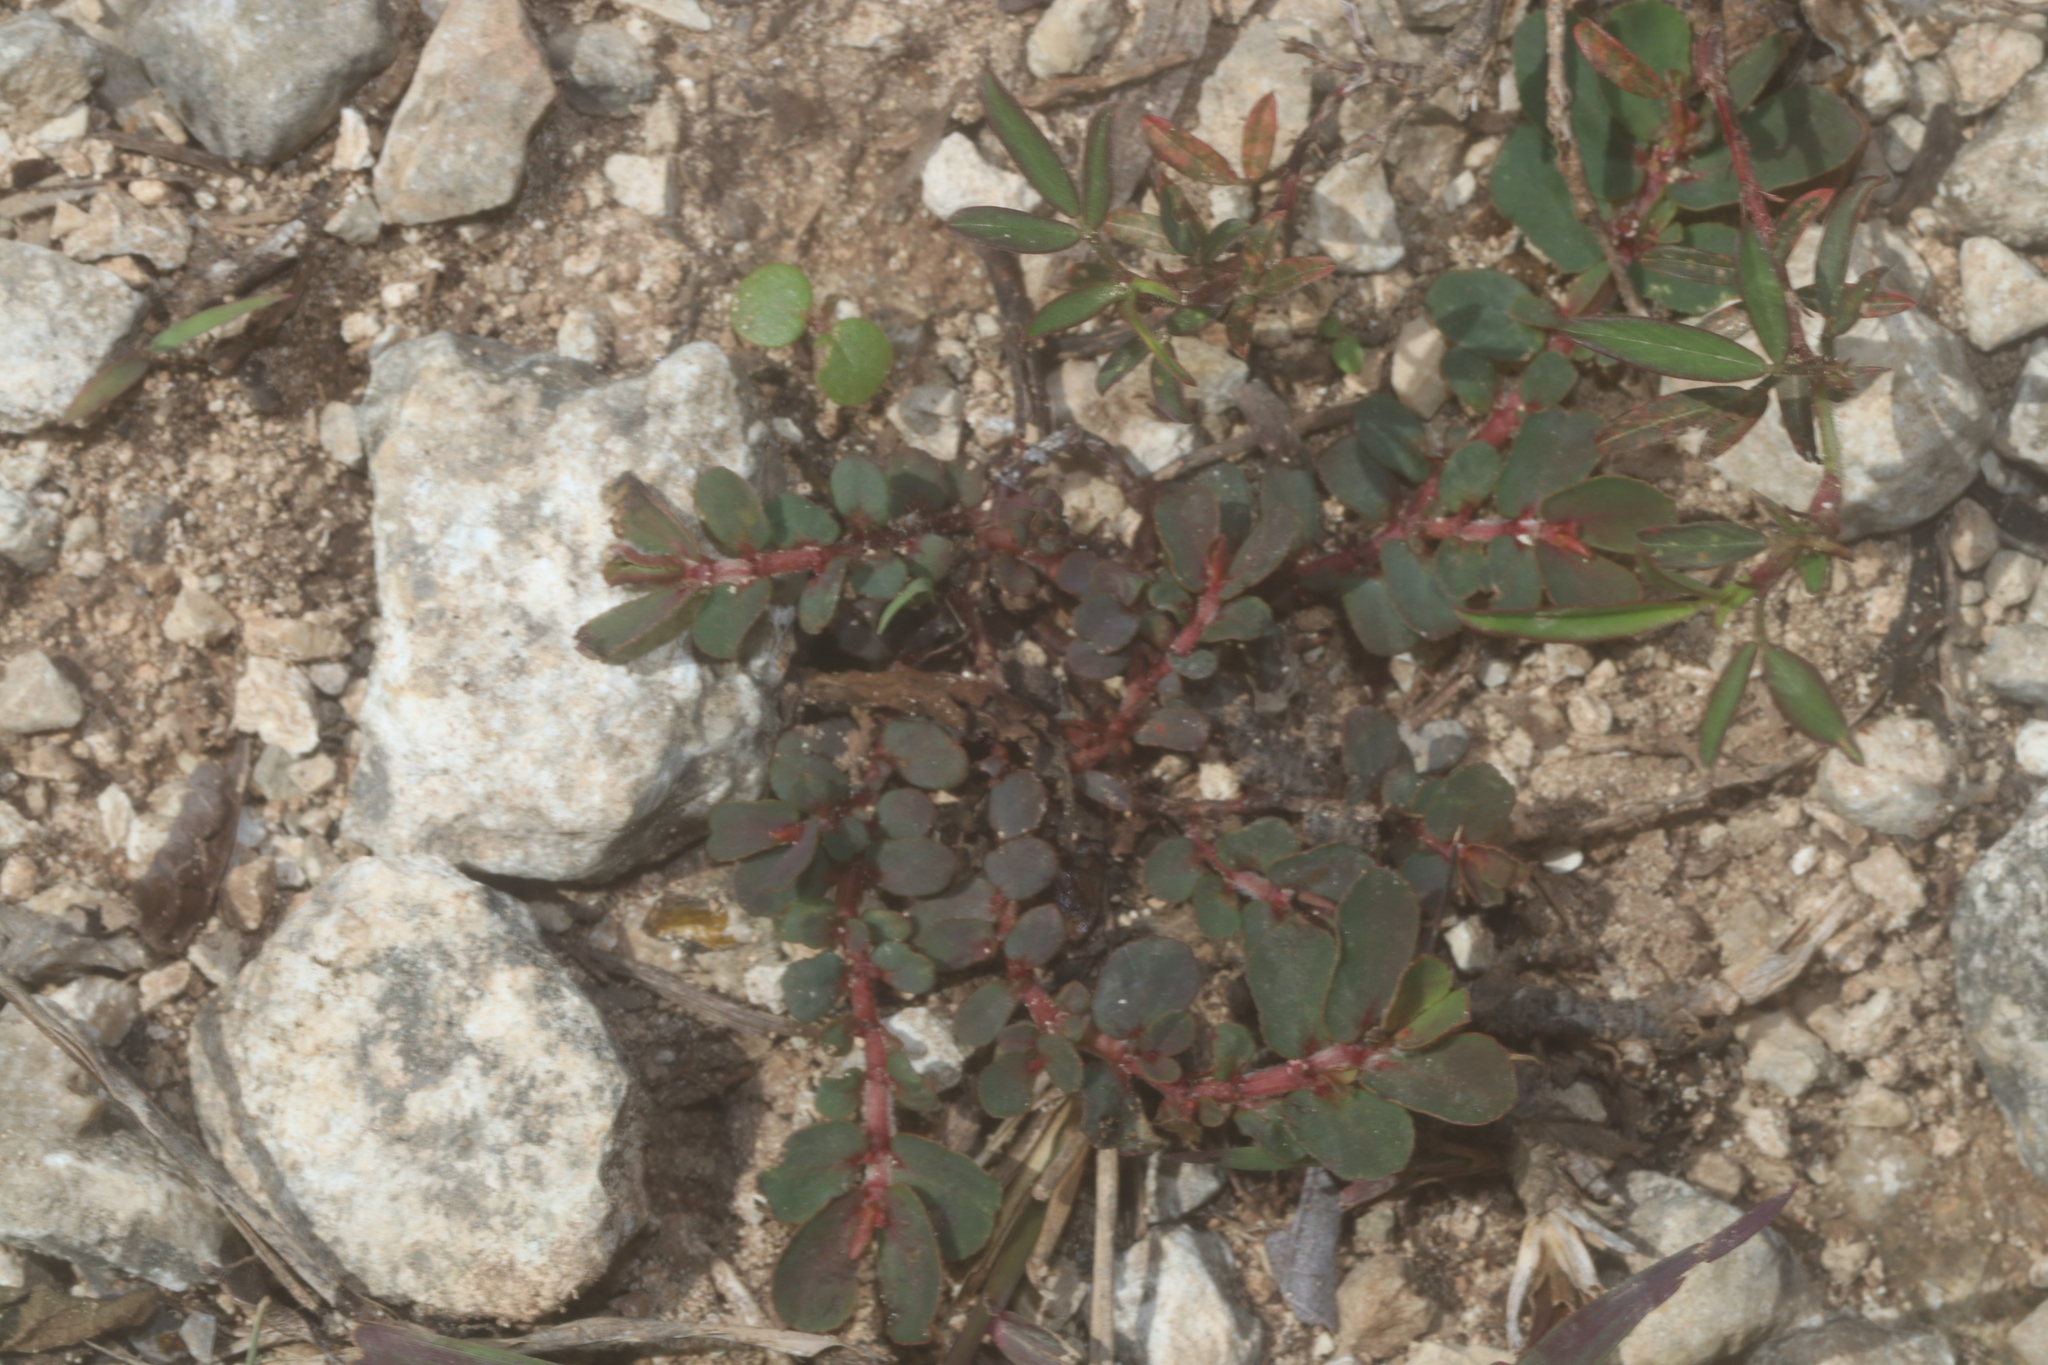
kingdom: Plantae
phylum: Tracheophyta
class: Magnoliopsida
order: Malpighiales
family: Euphorbiaceae
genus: Euphorbia
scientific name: Euphorbia mendezii
